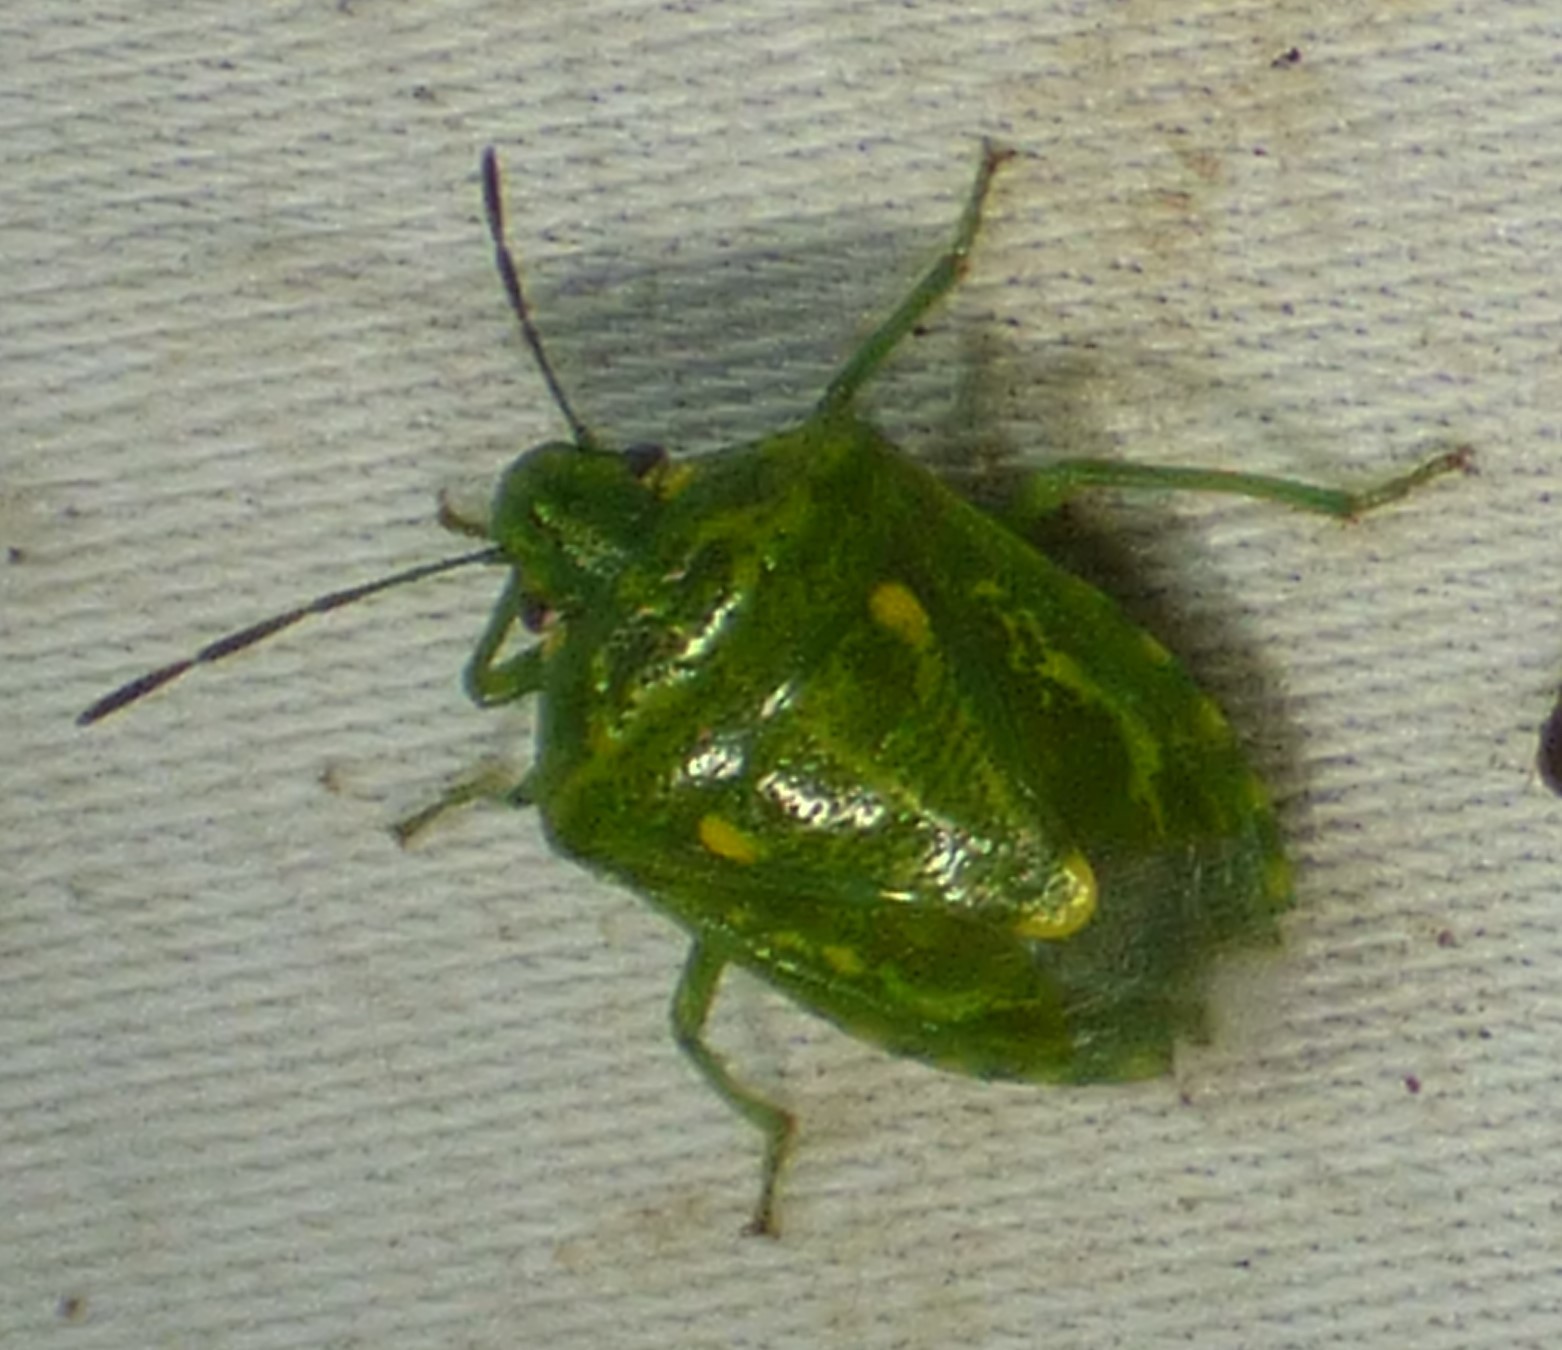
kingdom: Animalia
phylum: Arthropoda
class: Insecta
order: Hemiptera
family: Pentatomidae
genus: Banasa
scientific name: Banasa euchlora
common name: Cedar berry bug
